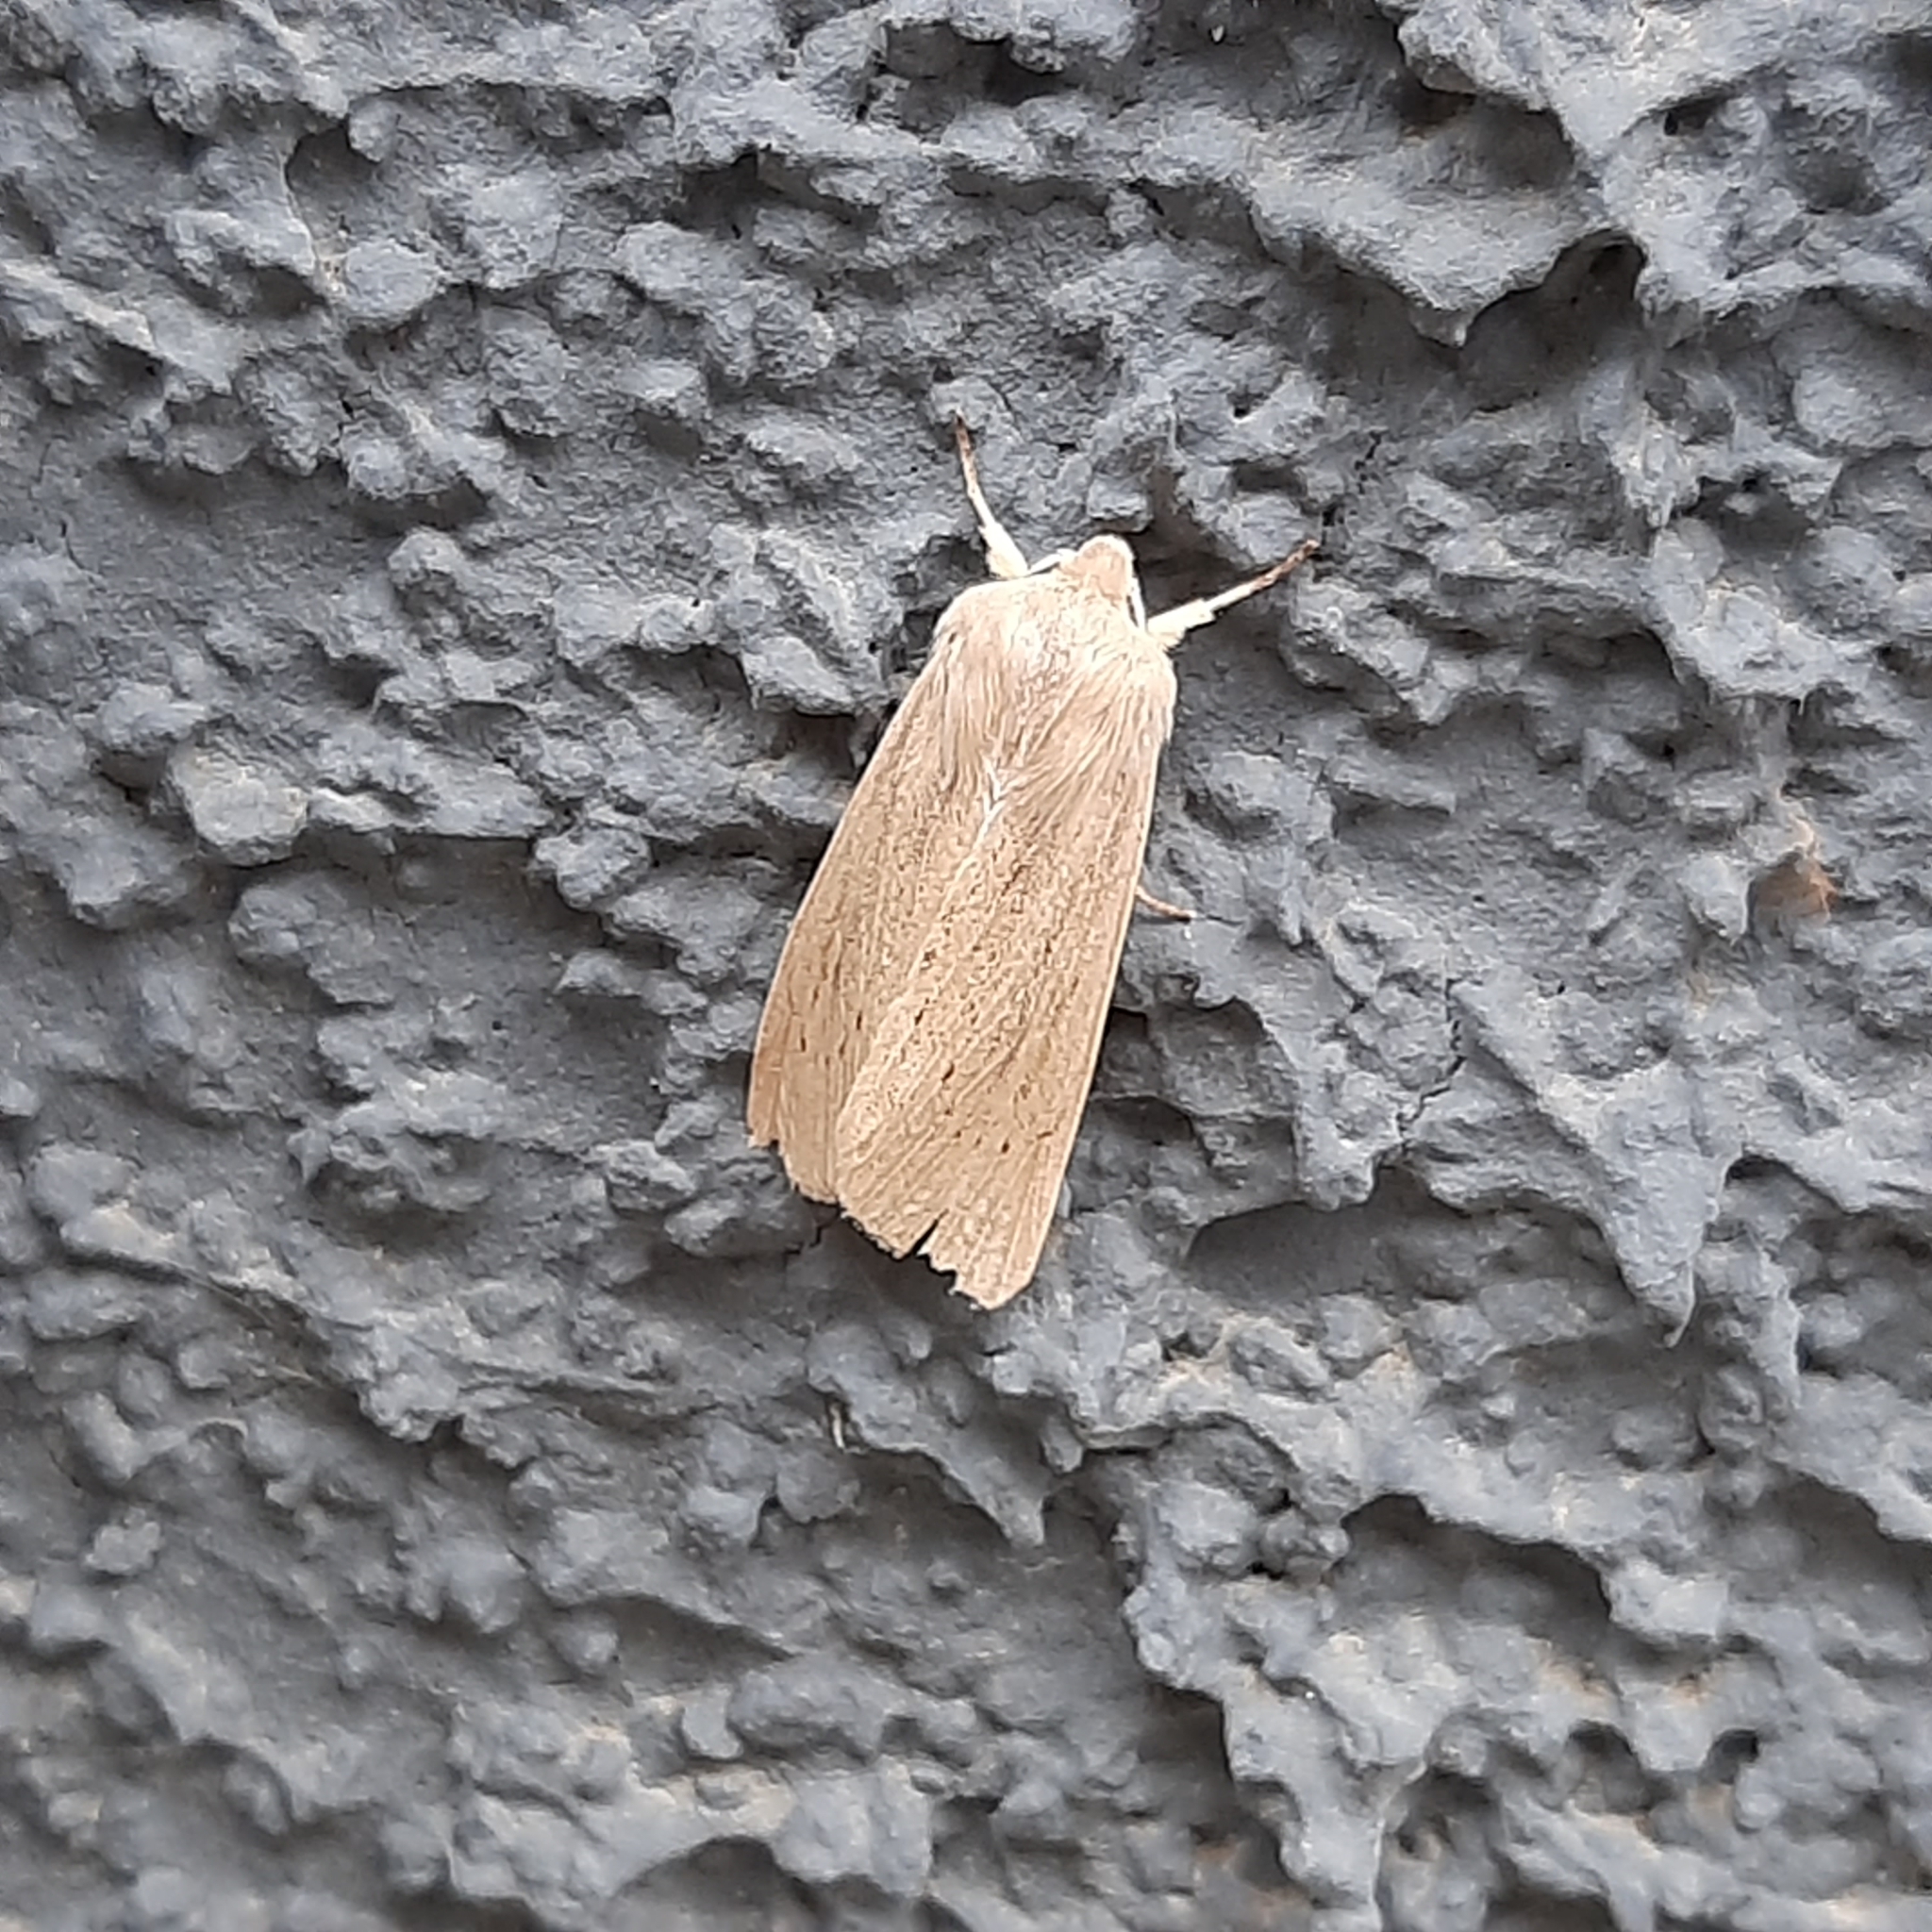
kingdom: Animalia
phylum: Arthropoda
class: Insecta
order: Lepidoptera
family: Noctuidae
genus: Rhizedra
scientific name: Rhizedra lutosa
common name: Large wainscot
